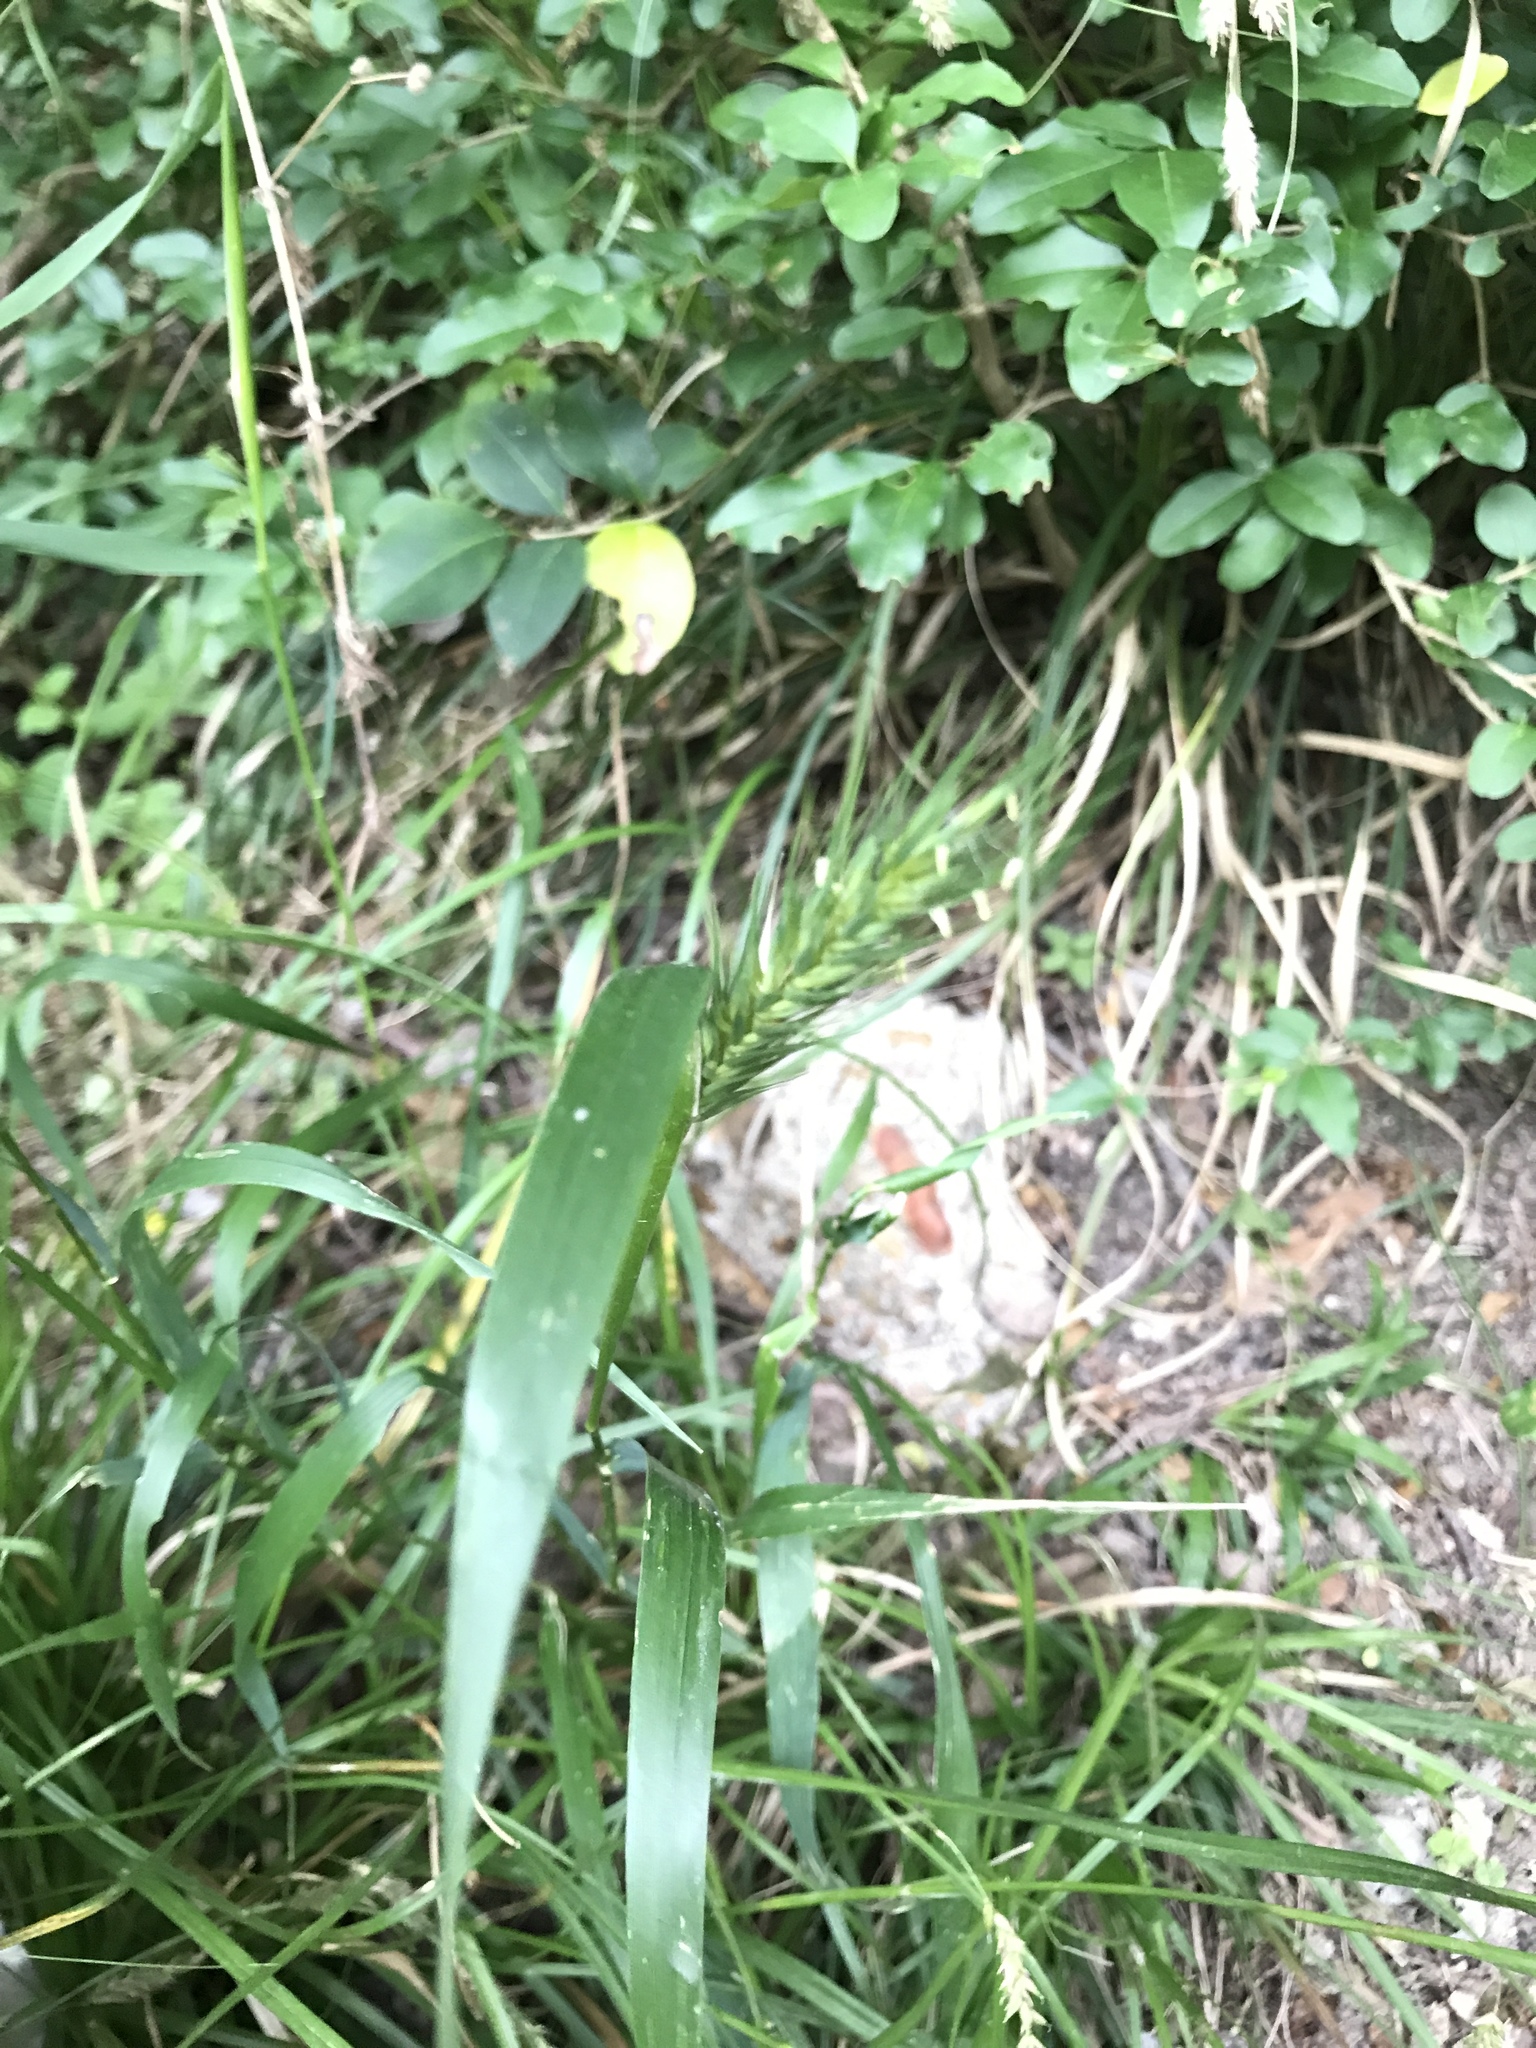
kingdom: Plantae
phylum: Tracheophyta
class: Liliopsida
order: Poales
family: Poaceae
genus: Elymus
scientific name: Elymus virginicus
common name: Common eastern wildrye
